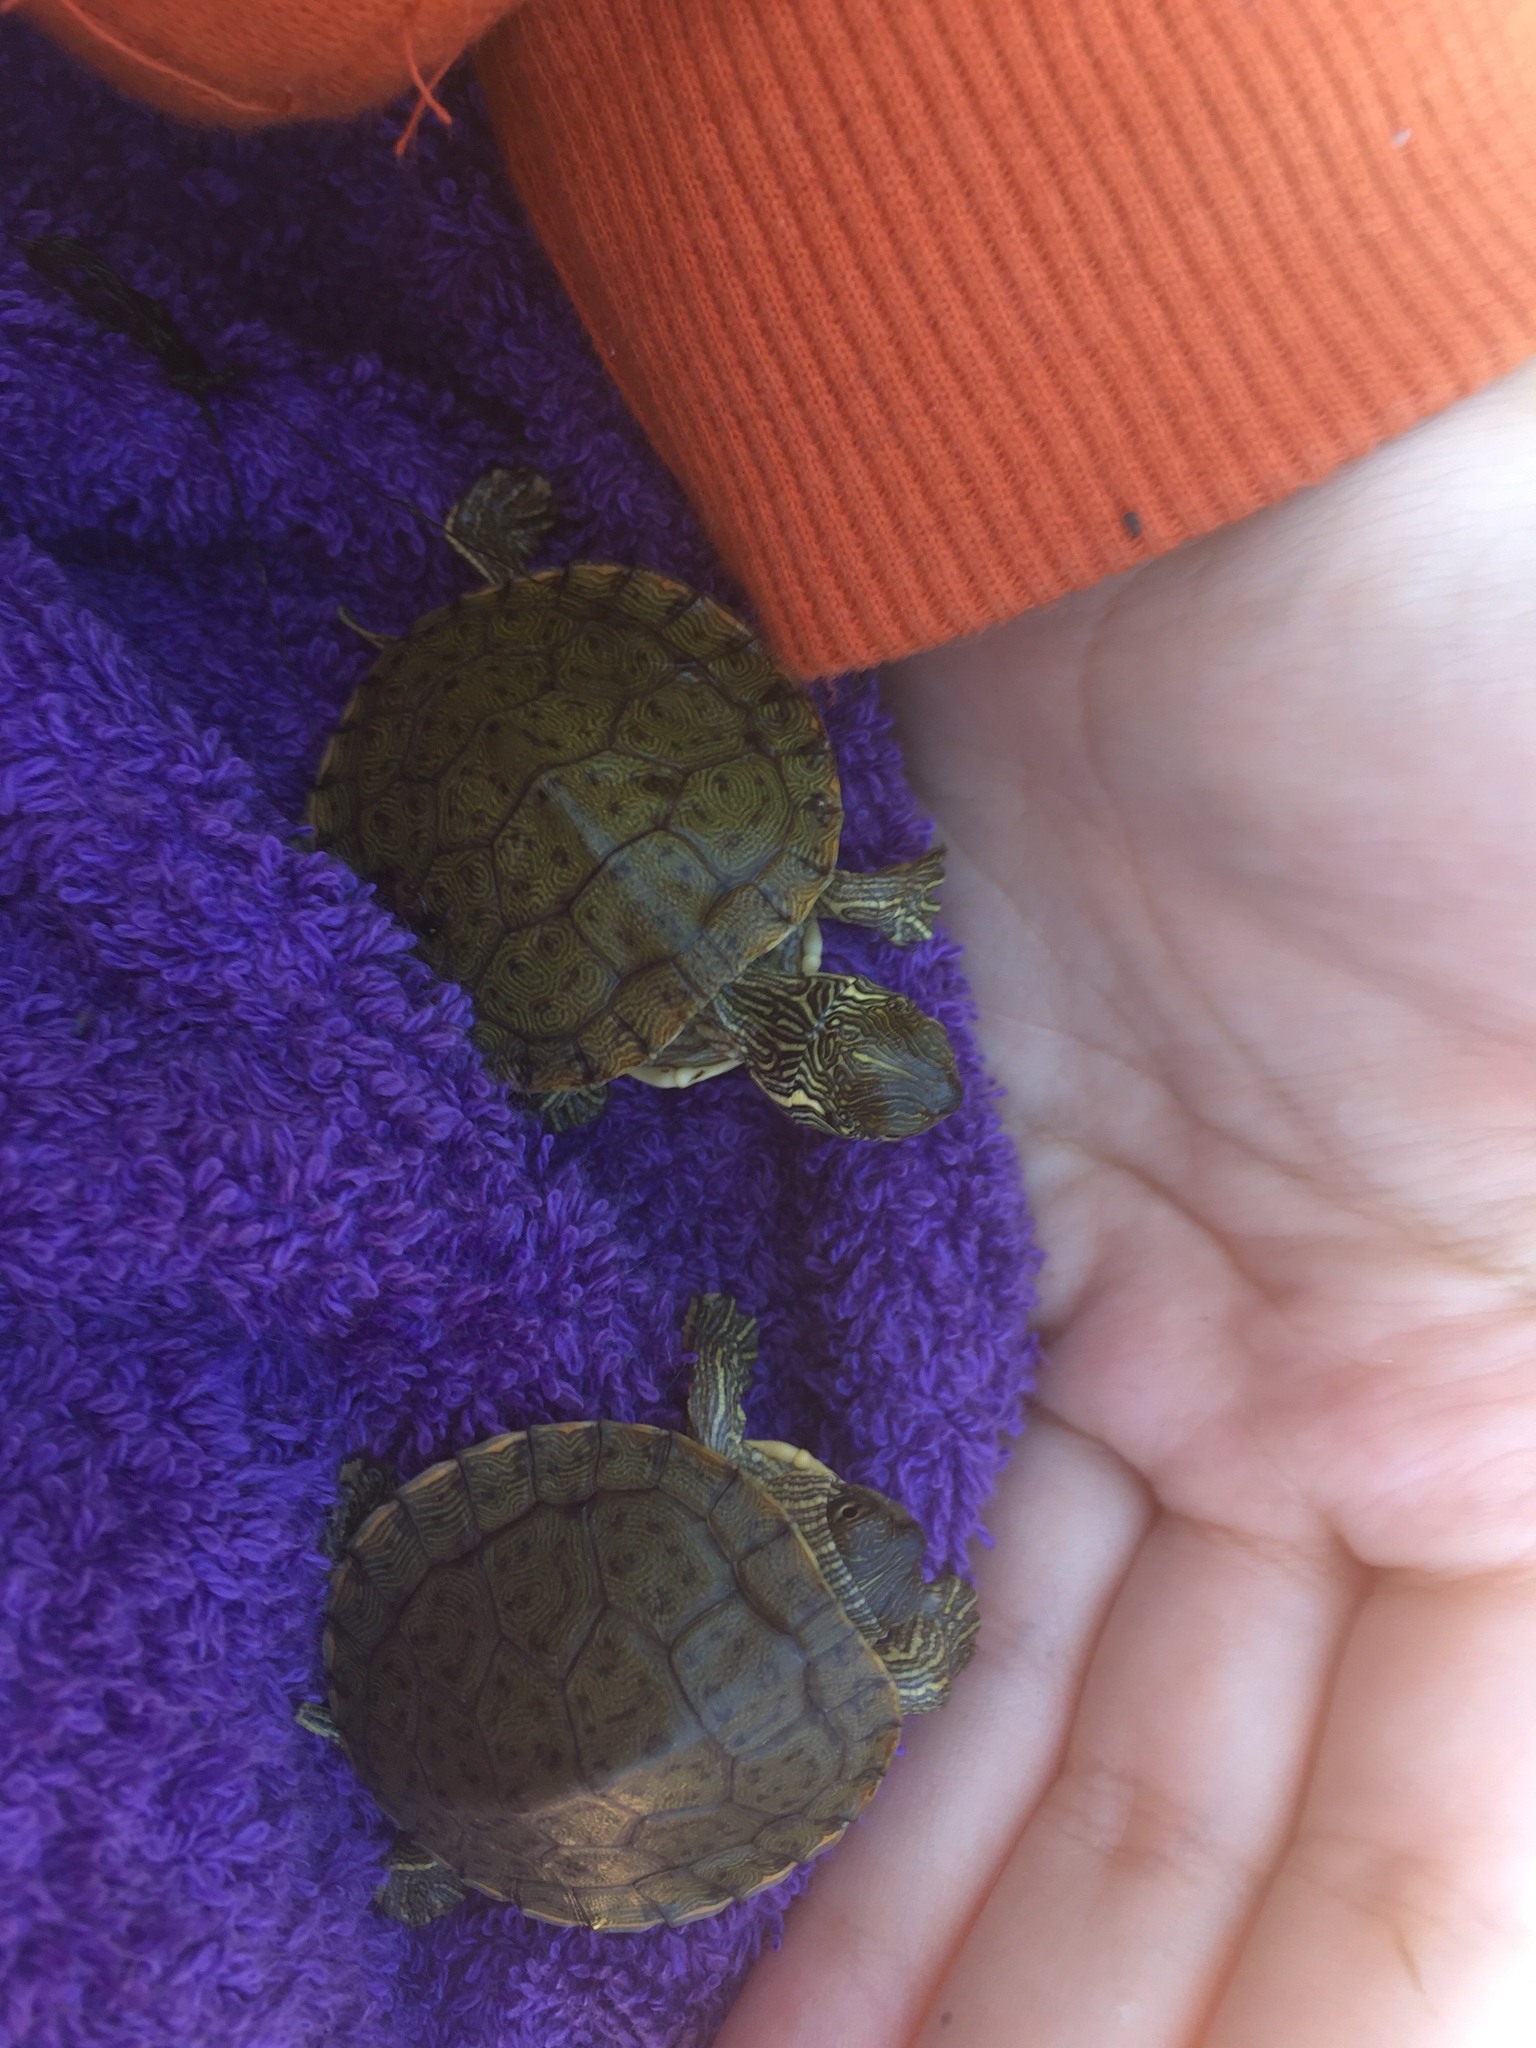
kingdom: Animalia
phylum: Chordata
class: Testudines
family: Emydidae
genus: Pseudemys
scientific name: Pseudemys texana
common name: Texas river cooter
